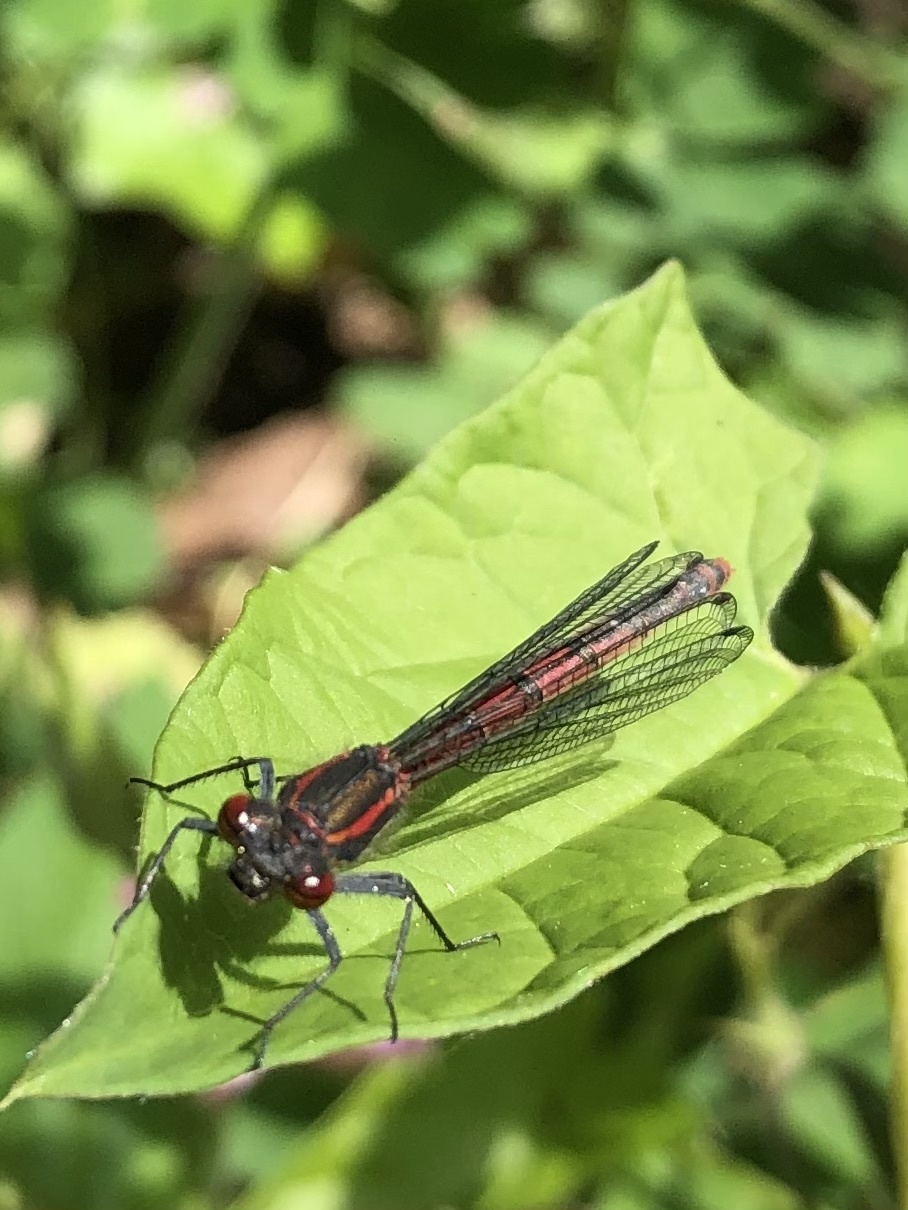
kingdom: Animalia
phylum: Arthropoda
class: Insecta
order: Odonata
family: Coenagrionidae
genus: Pyrrhosoma
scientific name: Pyrrhosoma nymphula
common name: Large red damsel
